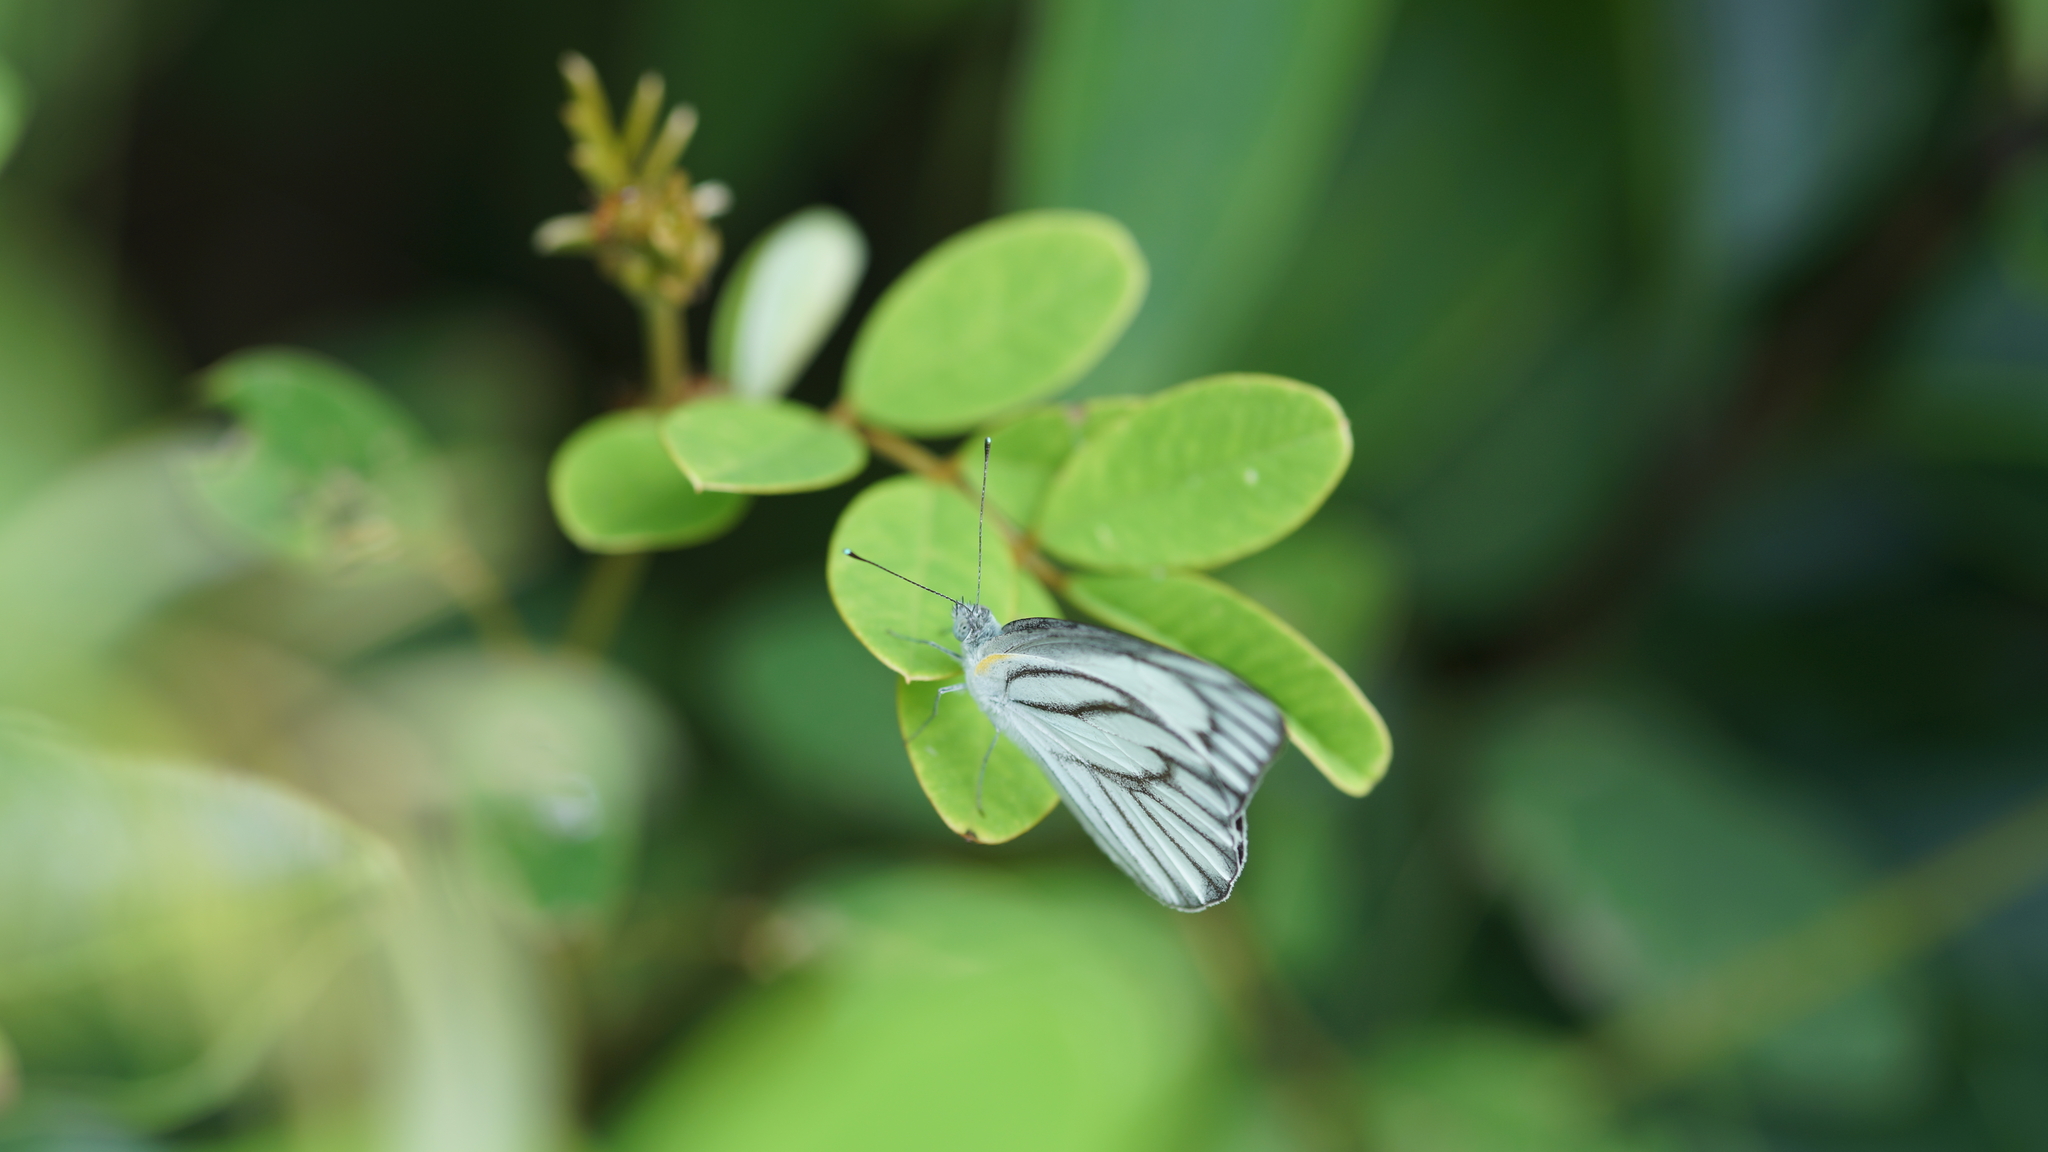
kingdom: Animalia
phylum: Arthropoda
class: Insecta
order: Lepidoptera
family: Pieridae
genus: Appias
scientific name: Appias libythea
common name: Striped albatross
